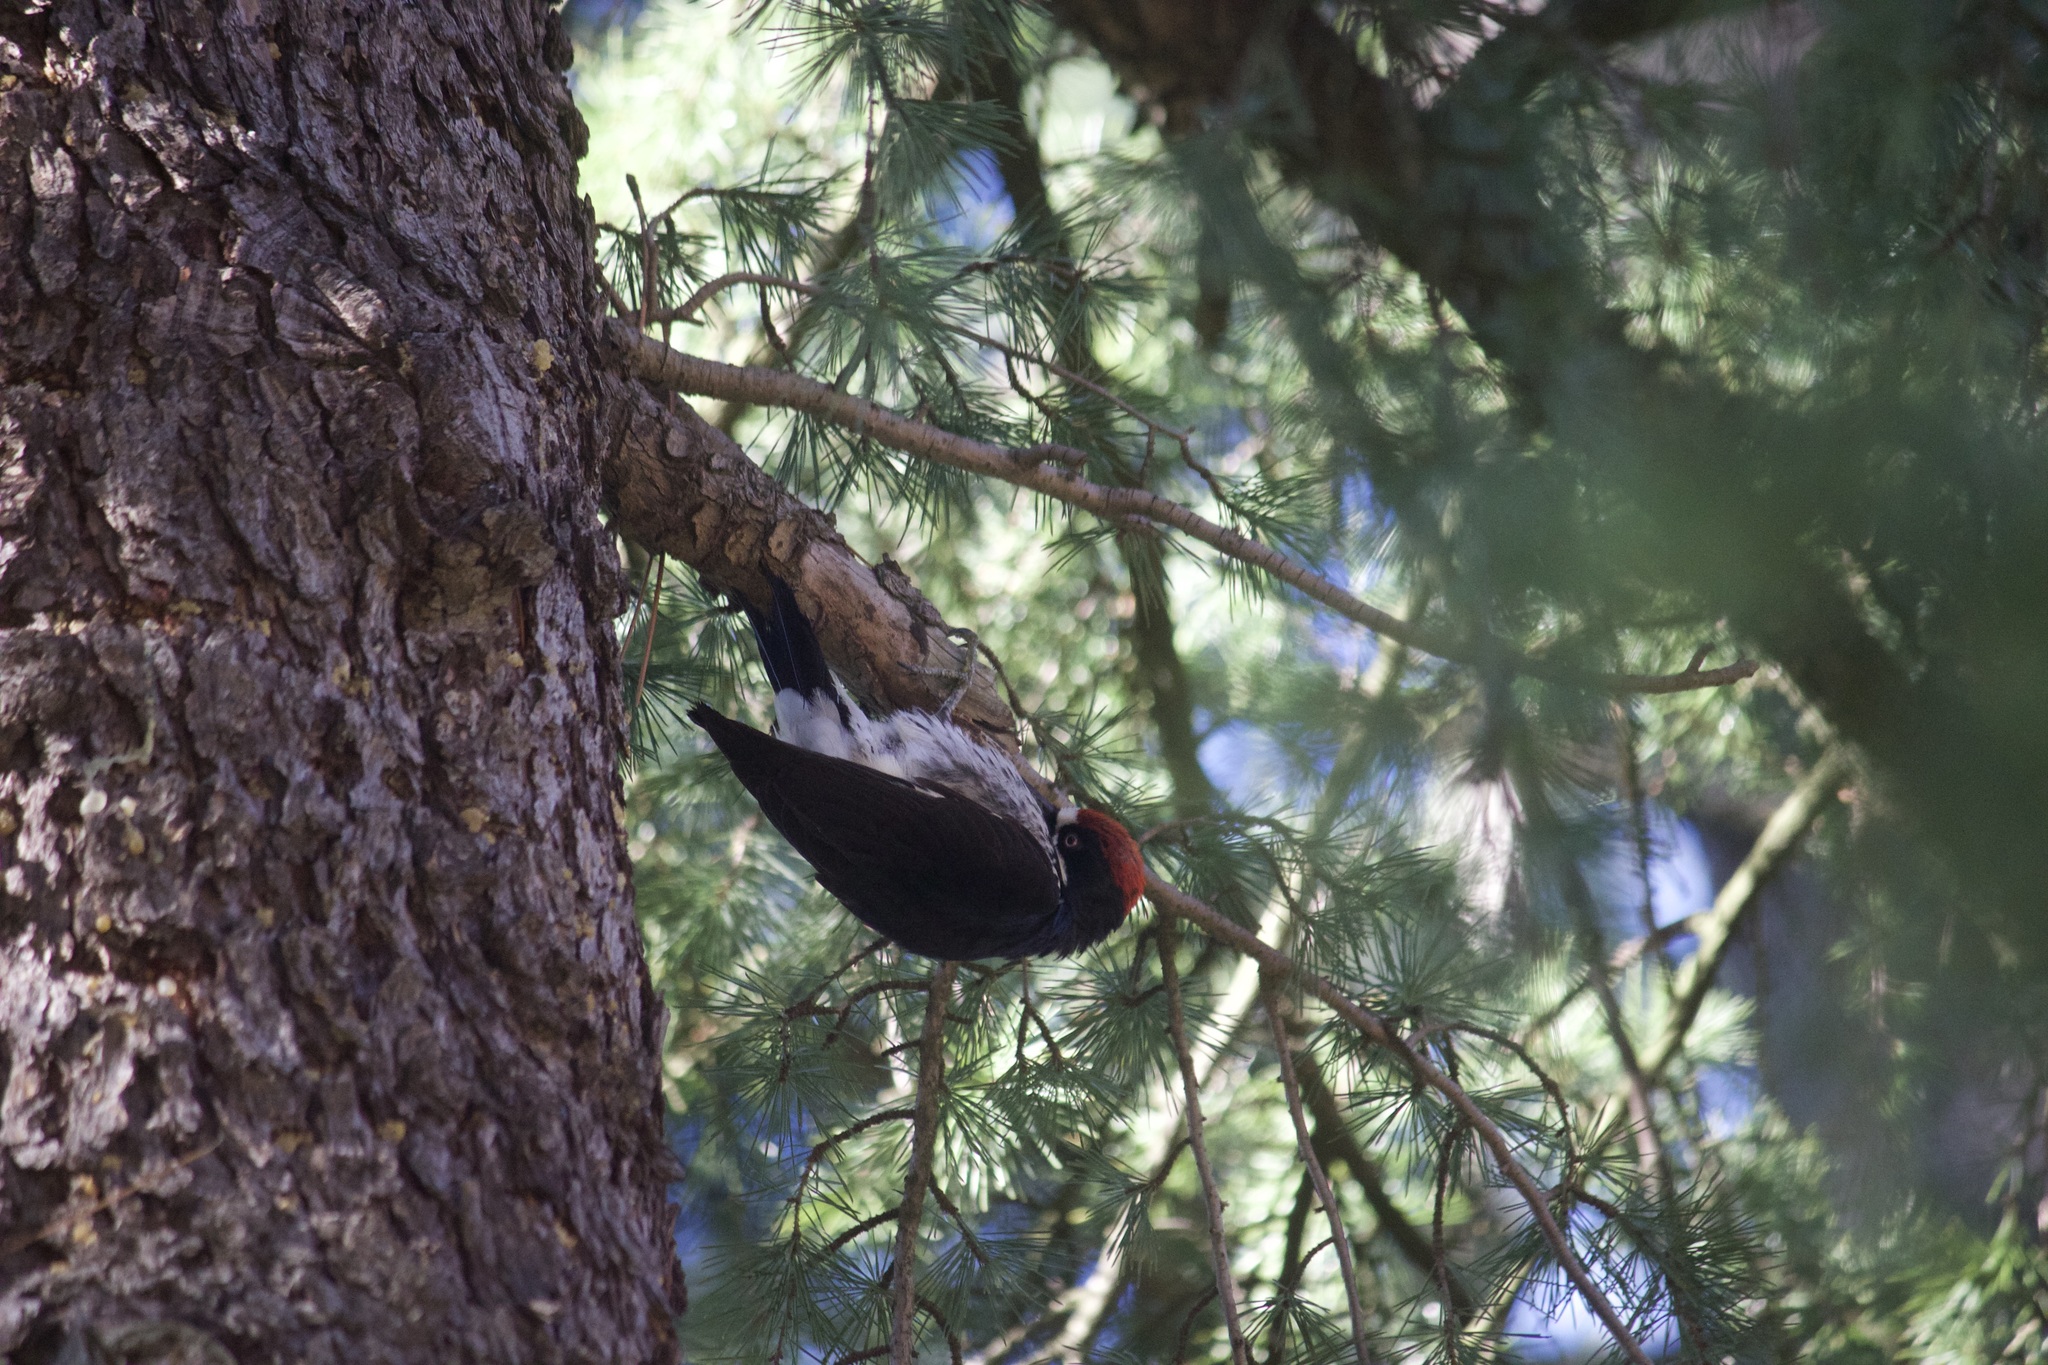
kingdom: Animalia
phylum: Chordata
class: Aves
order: Piciformes
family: Picidae
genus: Melanerpes
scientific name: Melanerpes formicivorus
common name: Acorn woodpecker
